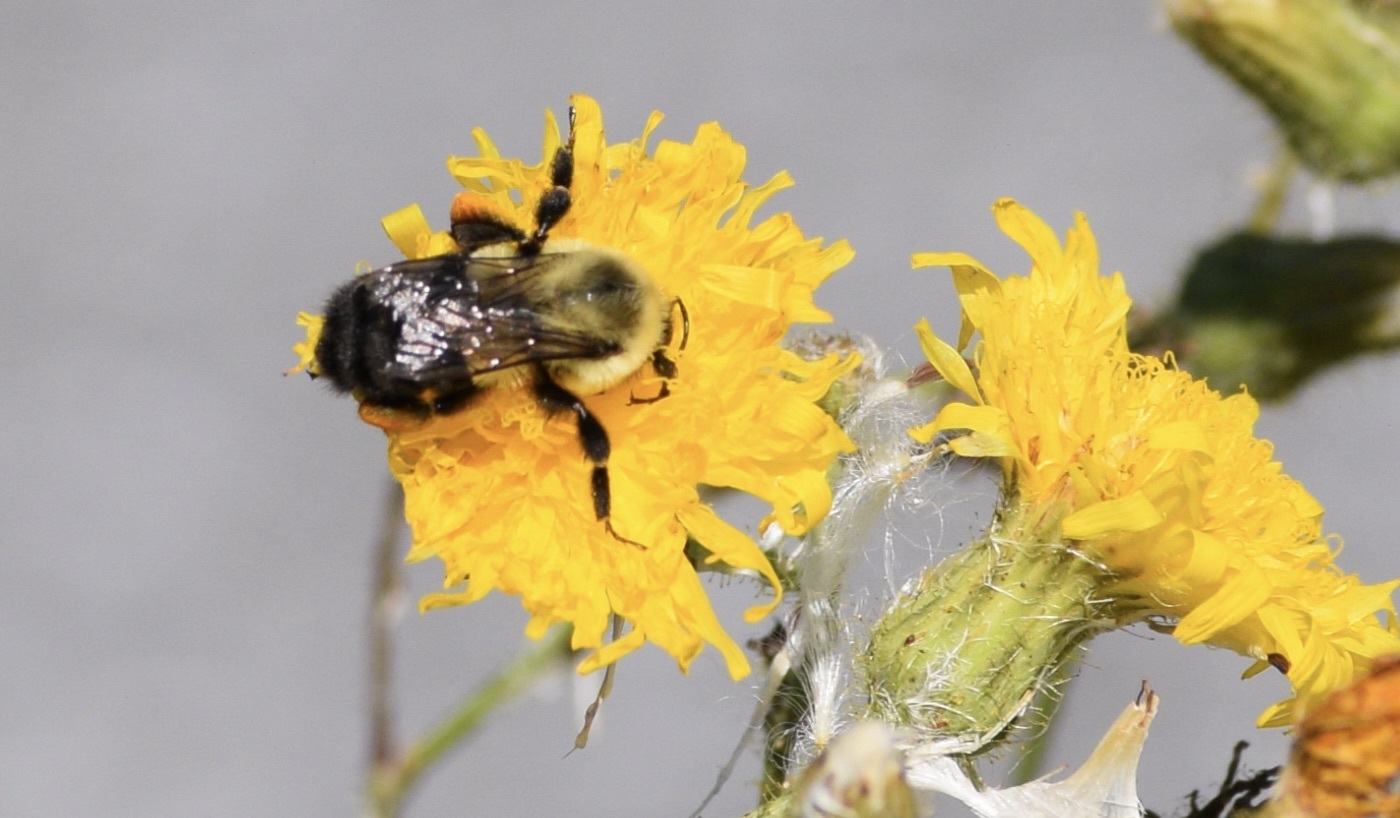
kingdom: Animalia
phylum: Arthropoda
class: Insecta
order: Hymenoptera
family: Apidae
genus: Bombus
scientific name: Bombus impatiens
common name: Common eastern bumble bee
